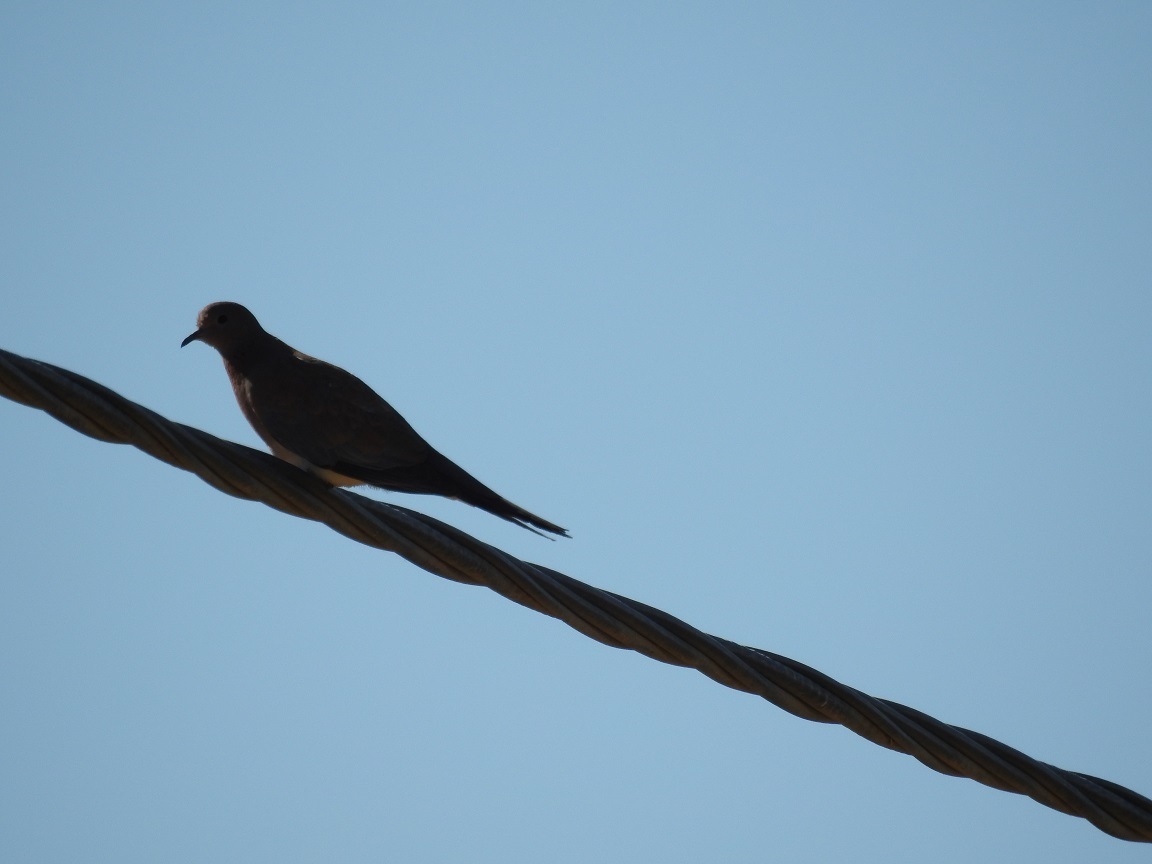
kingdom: Animalia
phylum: Chordata
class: Aves
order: Columbiformes
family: Columbidae
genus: Spilopelia
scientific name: Spilopelia senegalensis
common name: Laughing dove
